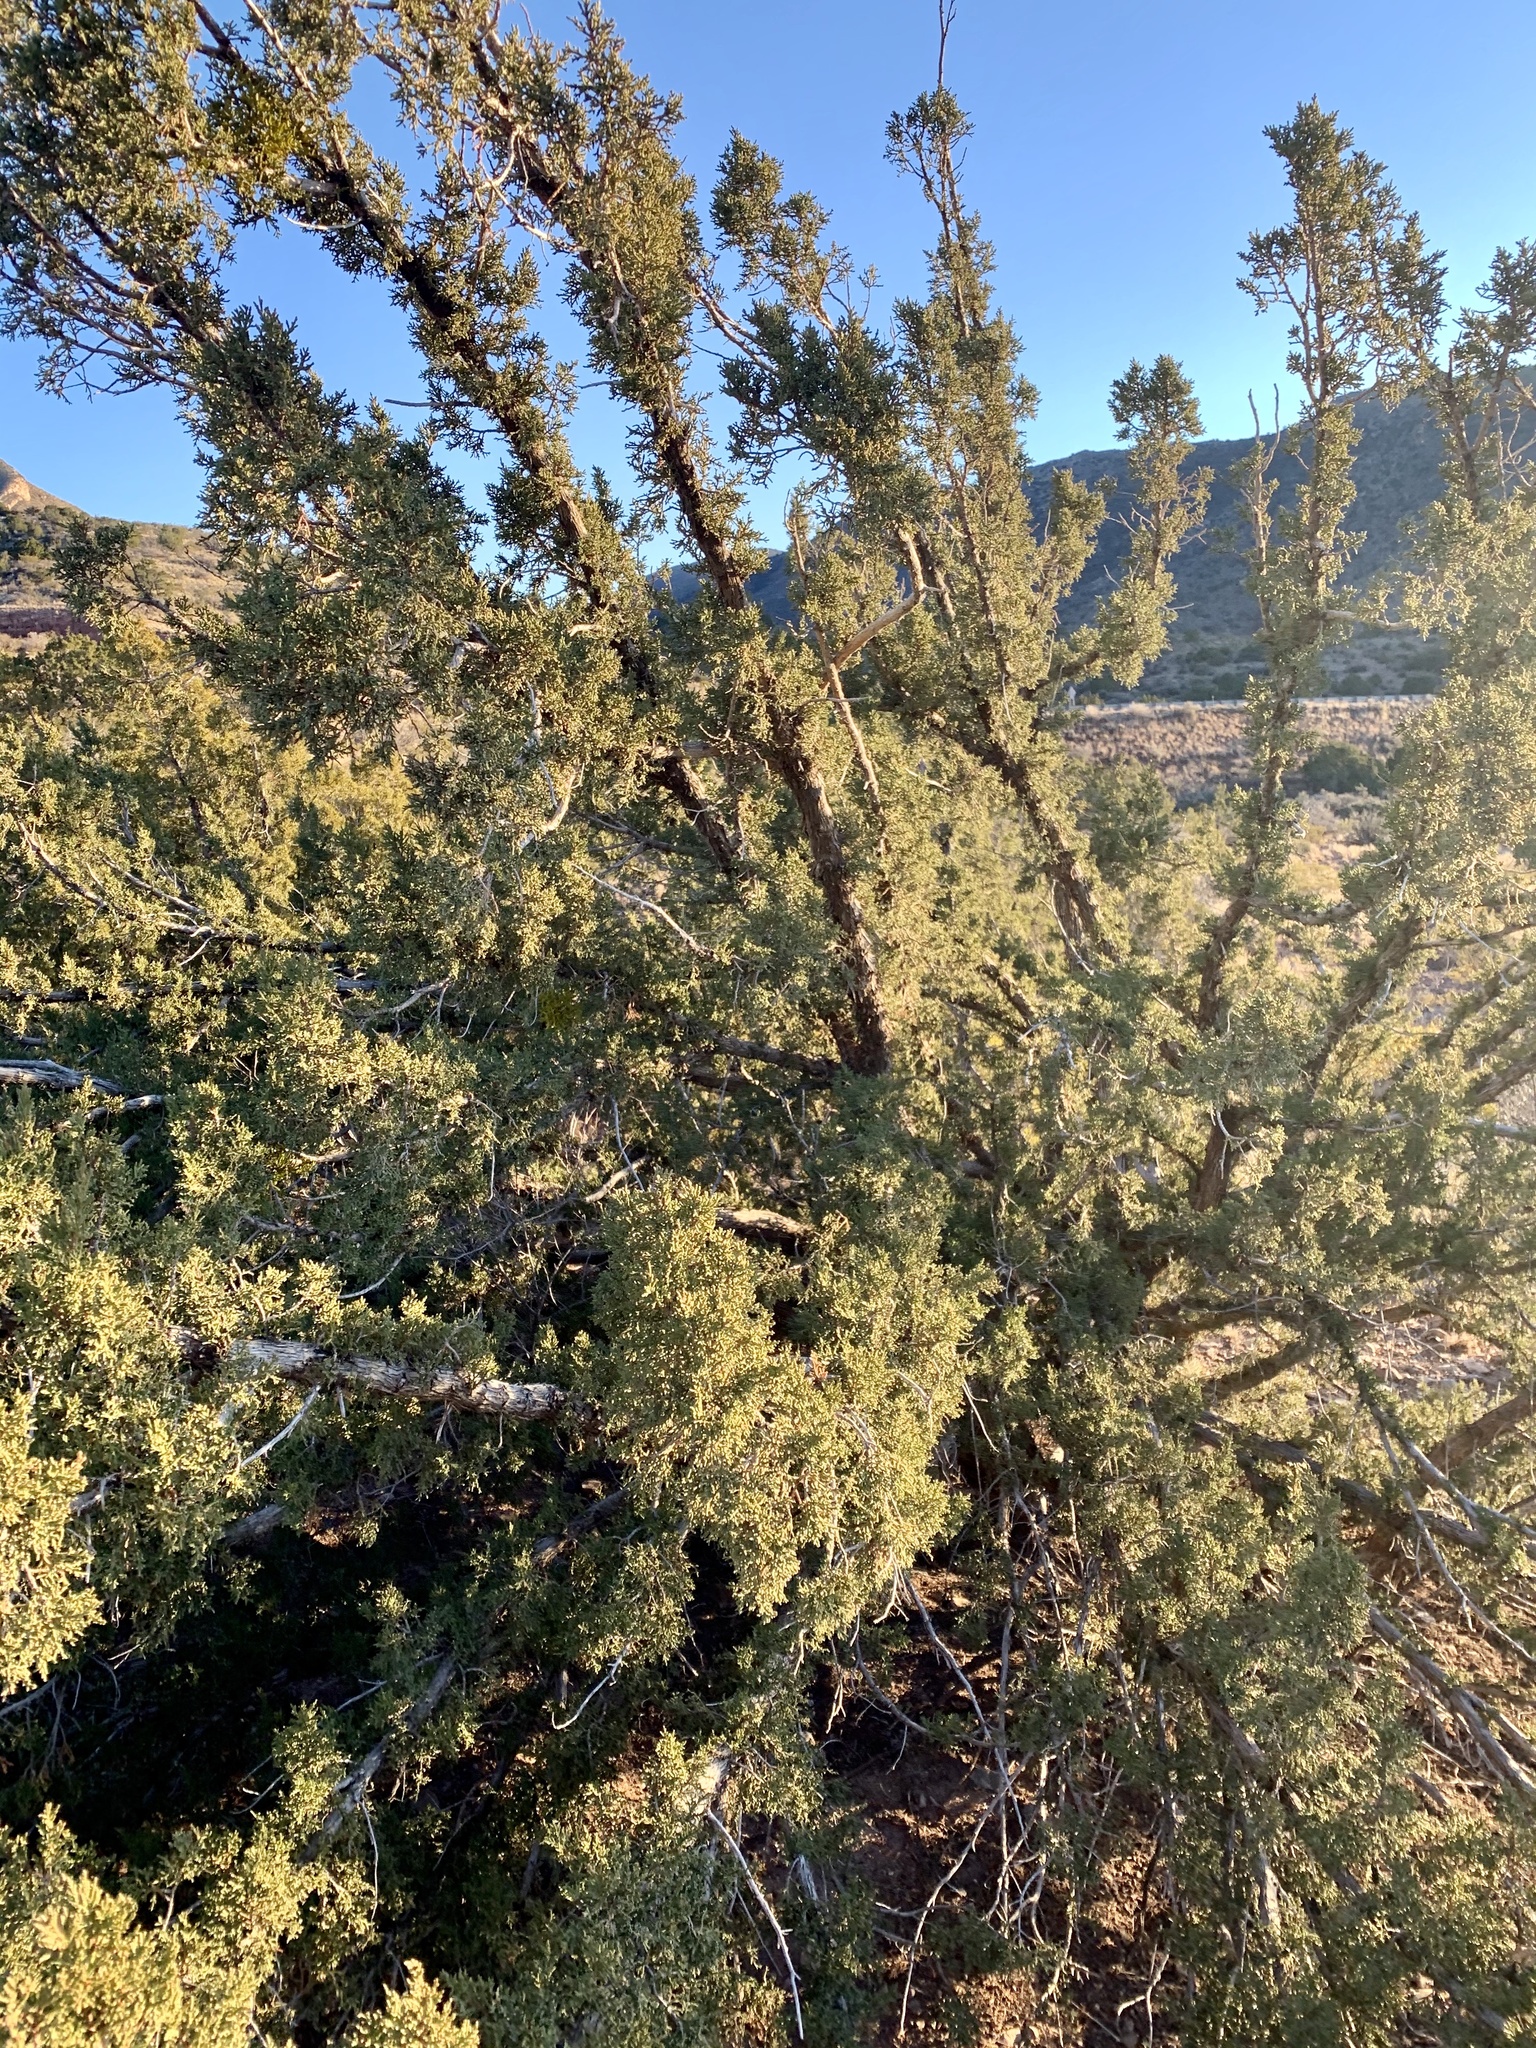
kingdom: Plantae
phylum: Tracheophyta
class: Pinopsida
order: Pinales
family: Cupressaceae
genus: Juniperus
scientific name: Juniperus monosperma
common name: One-seed juniper
